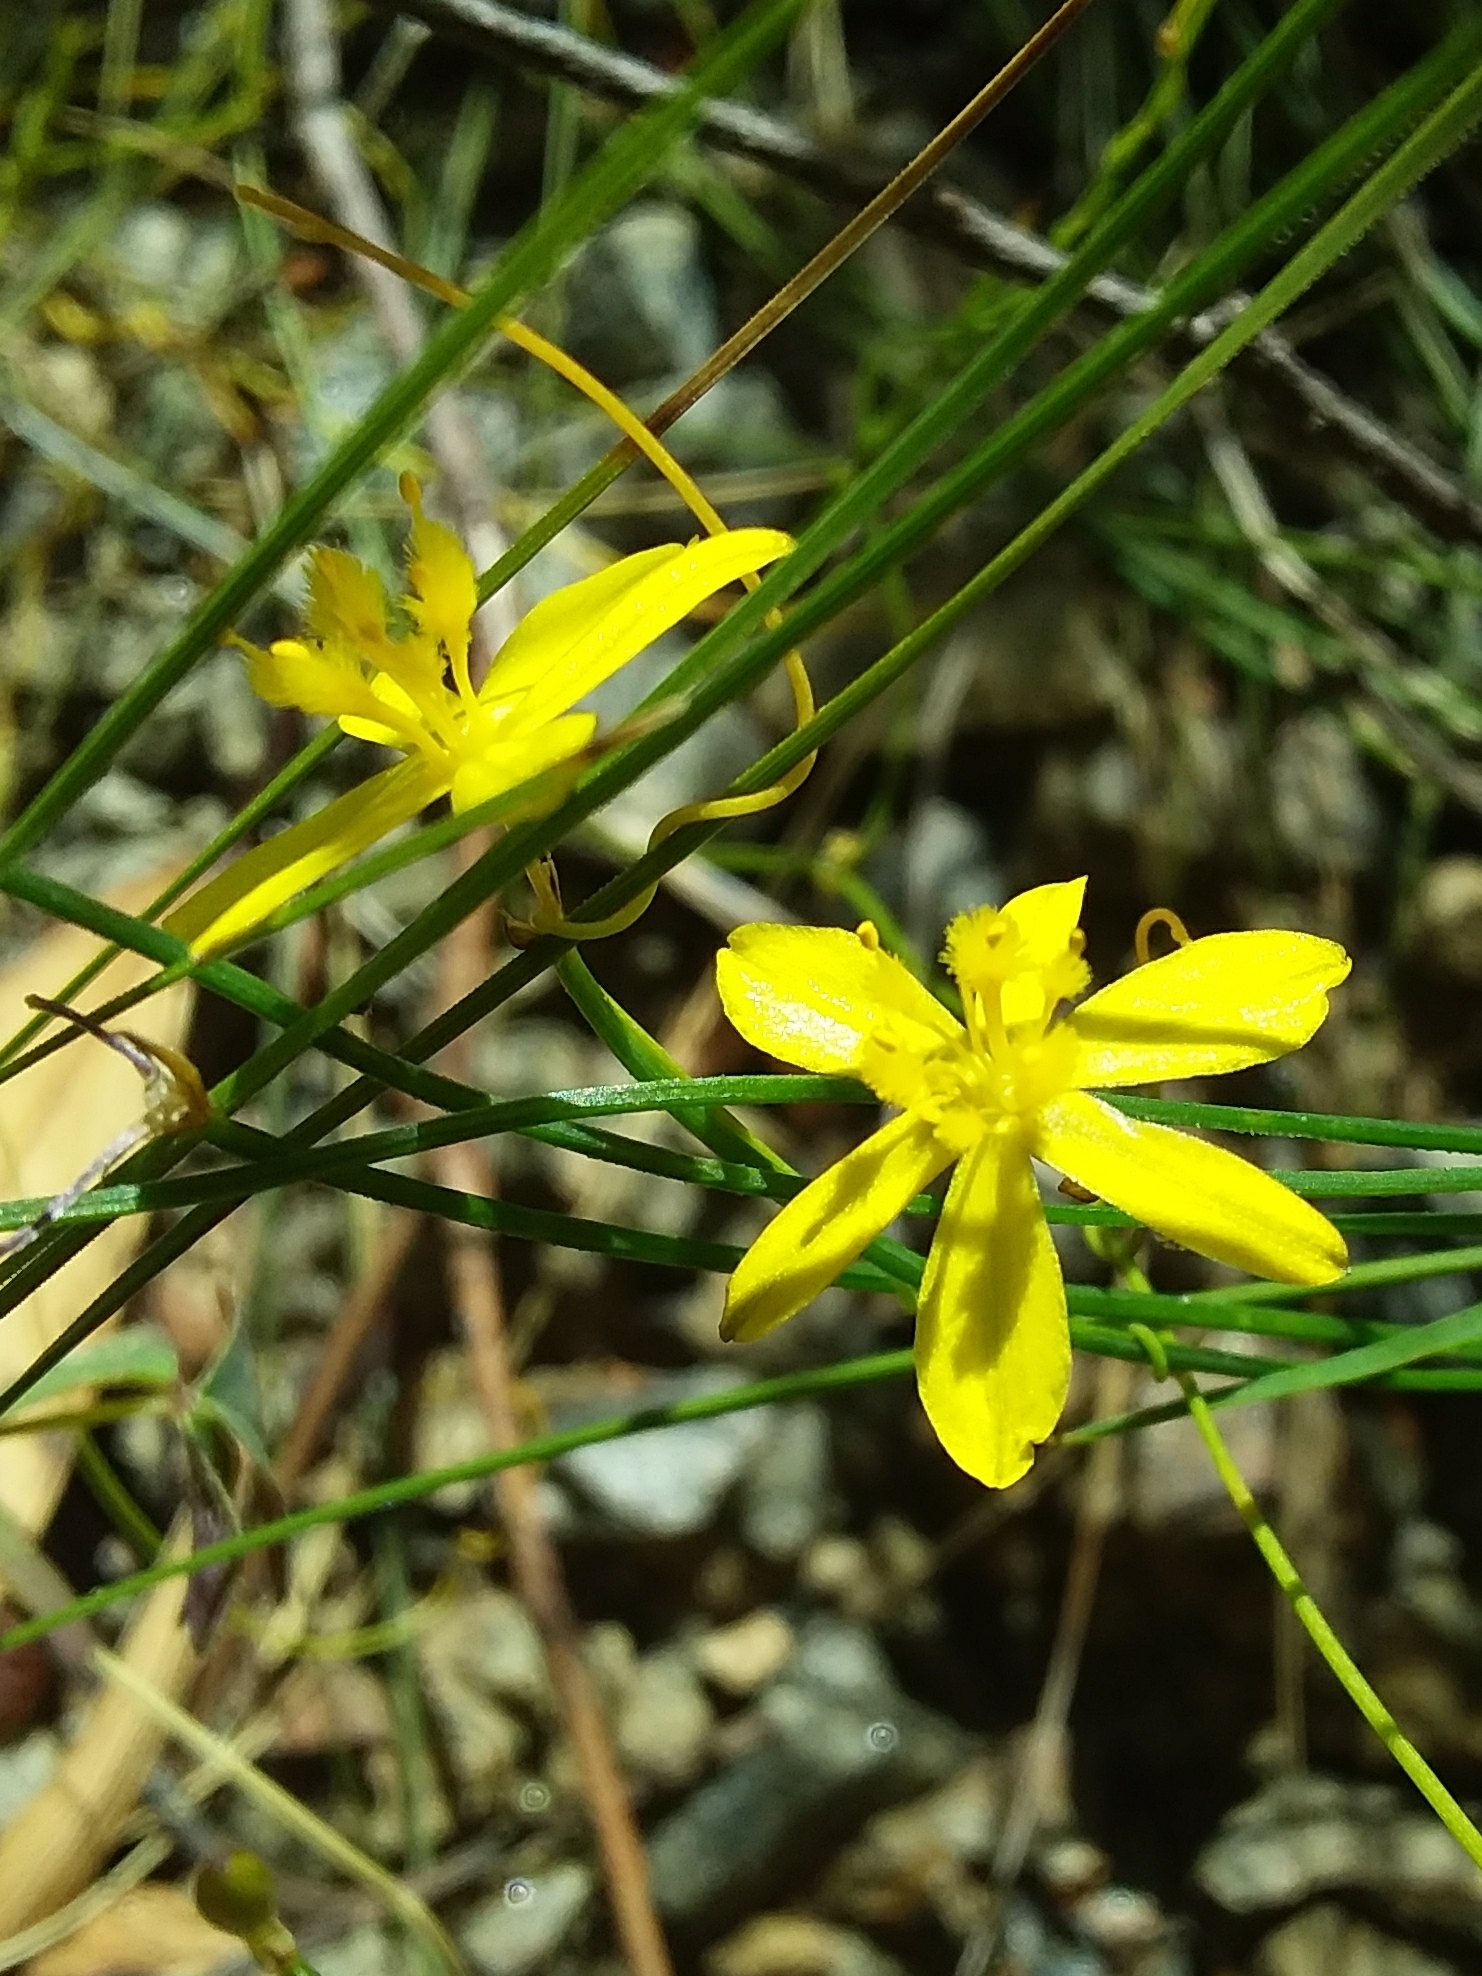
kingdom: Plantae
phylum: Tracheophyta
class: Liliopsida
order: Asparagales
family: Asphodelaceae
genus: Tricoryne
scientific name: Tricoryne elatior
